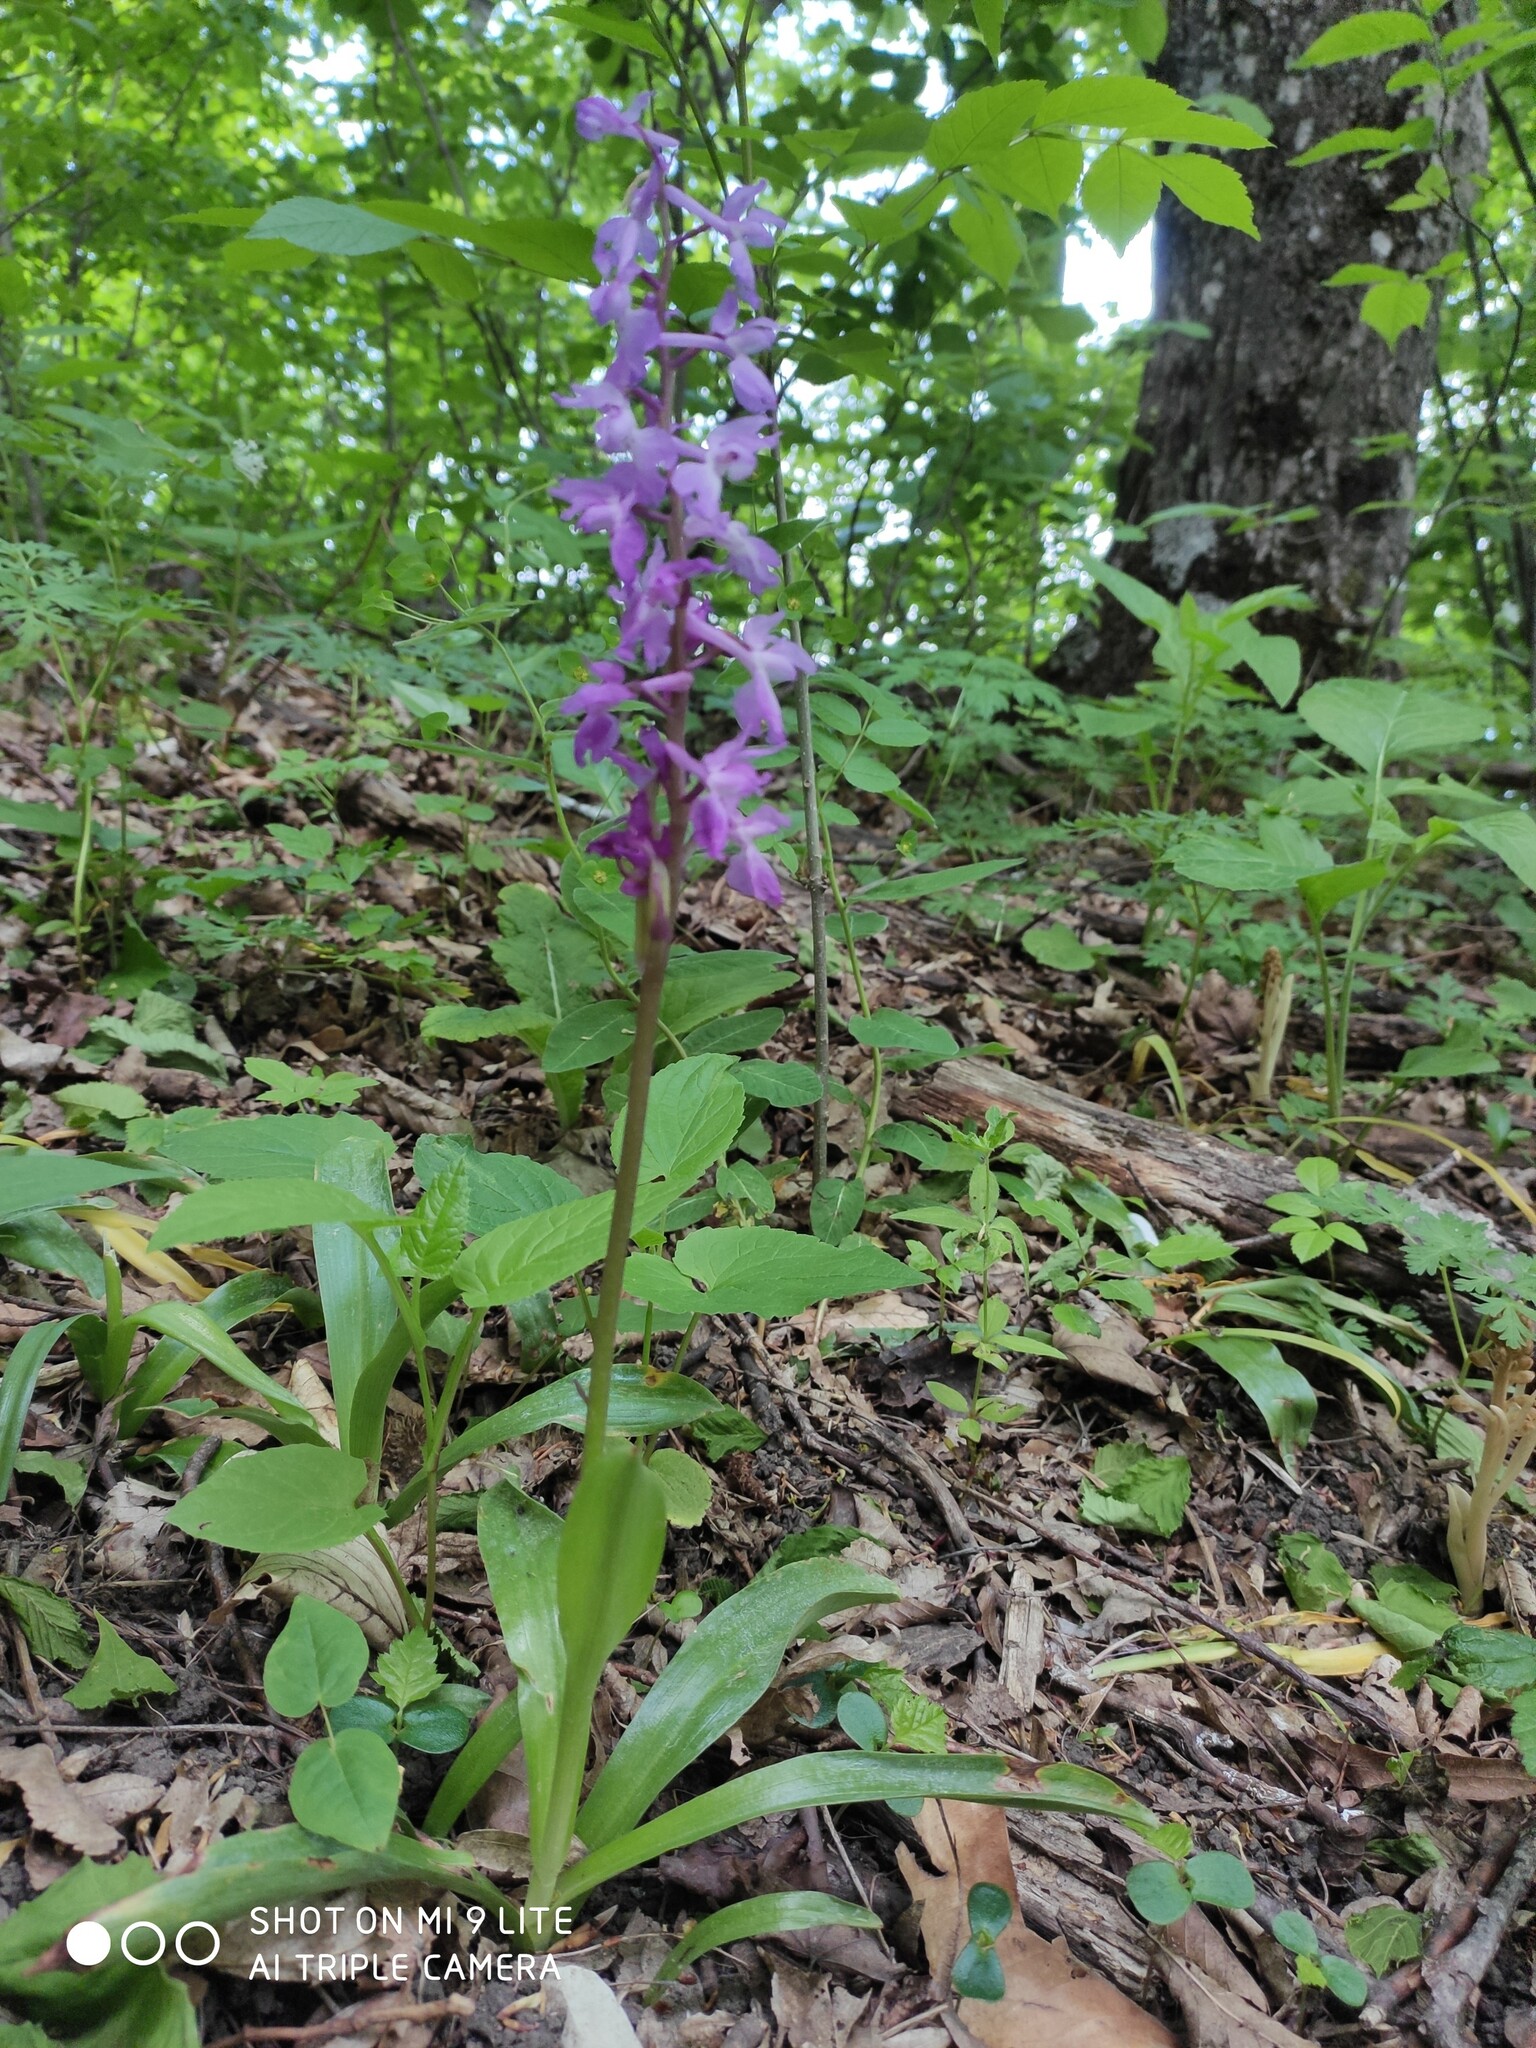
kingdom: Plantae
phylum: Tracheophyta
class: Liliopsida
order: Asparagales
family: Orchidaceae
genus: Orchis
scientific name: Orchis mascula
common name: Early-purple orchid
